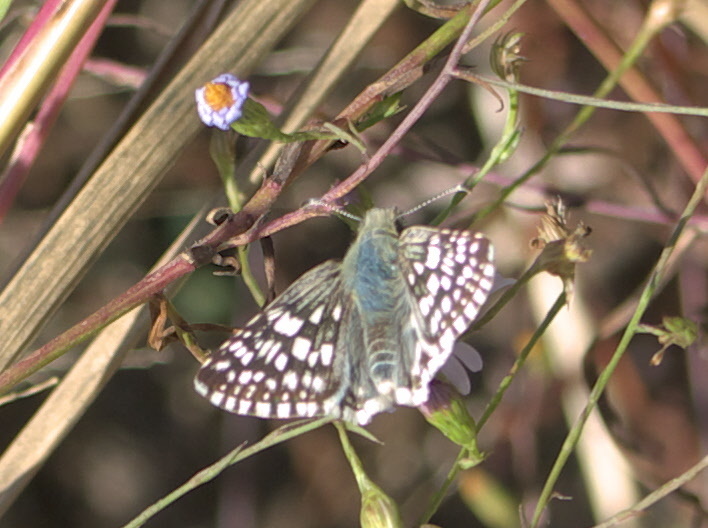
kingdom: Animalia
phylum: Arthropoda
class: Insecta
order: Lepidoptera
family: Hesperiidae
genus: Burnsius
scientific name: Burnsius communis
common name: Common checkered-skipper
